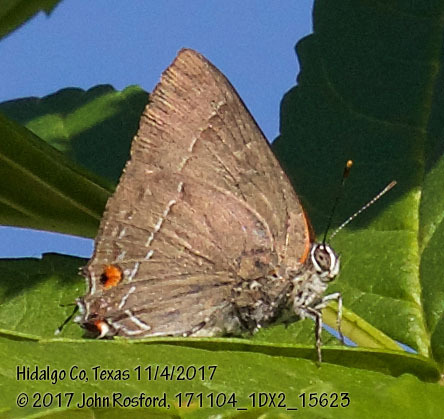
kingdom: Animalia
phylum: Arthropoda
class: Insecta
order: Lepidoptera
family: Lycaenidae
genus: Thecla
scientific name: Thecla marius
